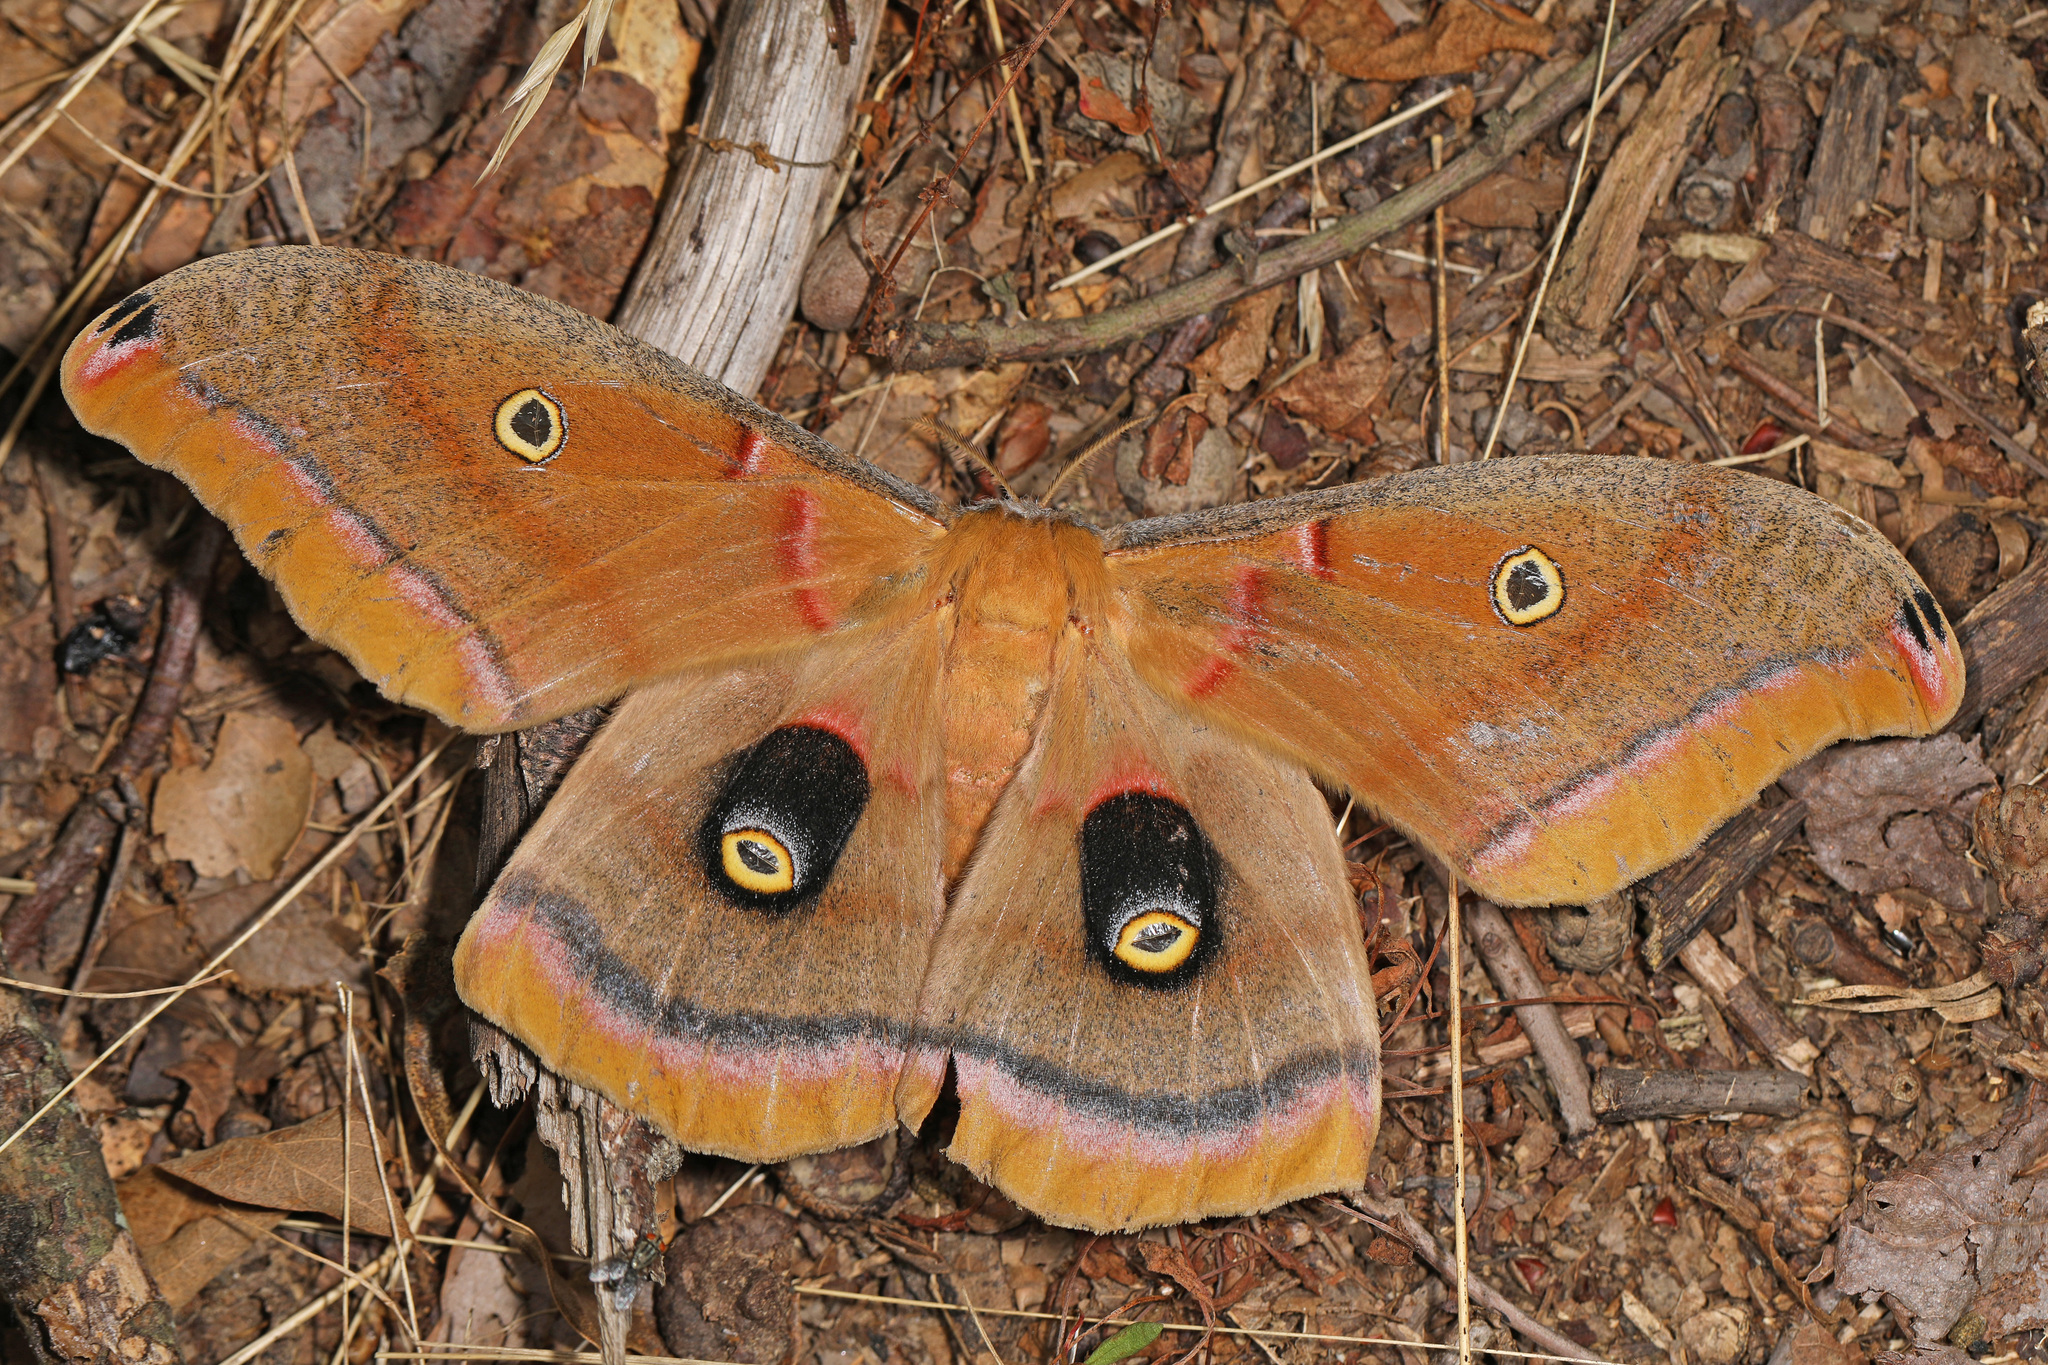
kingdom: Animalia
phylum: Arthropoda
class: Insecta
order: Lepidoptera
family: Saturniidae
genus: Antheraea
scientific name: Antheraea polyphemus
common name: Polyphemus moth
